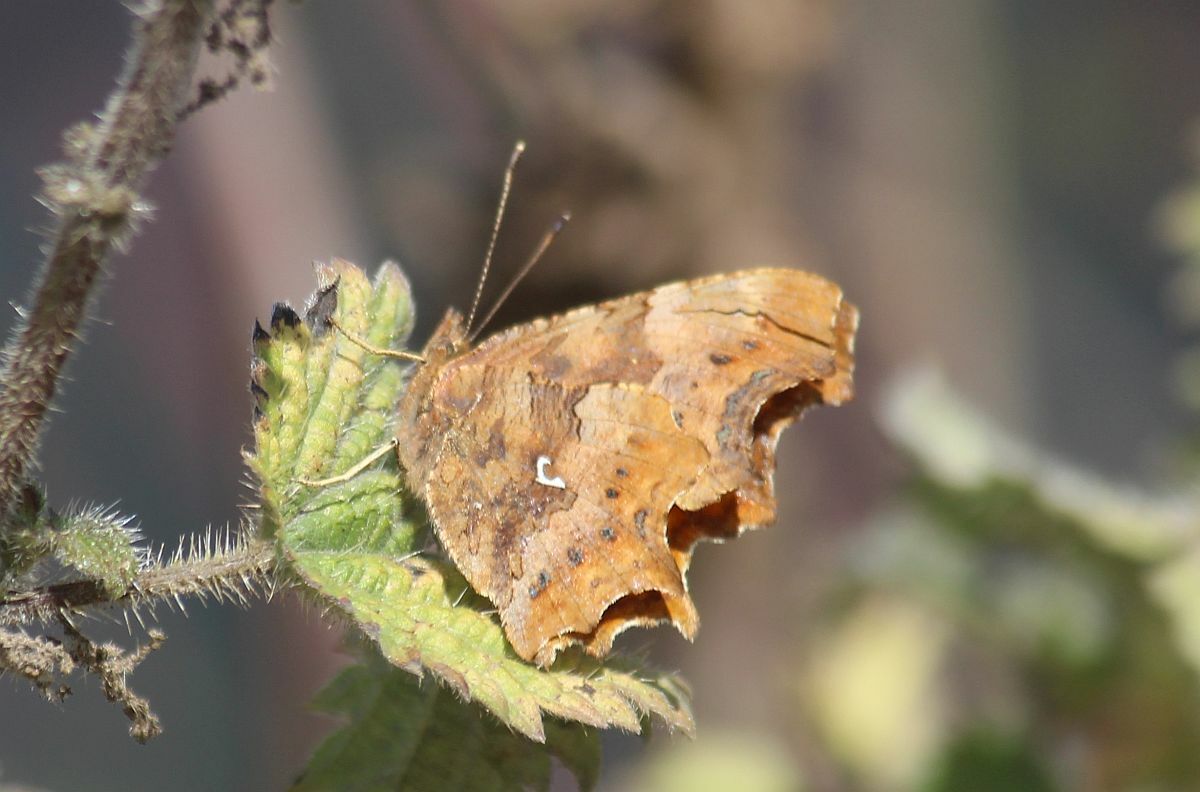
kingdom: Animalia
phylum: Arthropoda
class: Insecta
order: Lepidoptera
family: Nymphalidae
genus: Polygonia
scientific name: Polygonia c-album
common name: Comma
